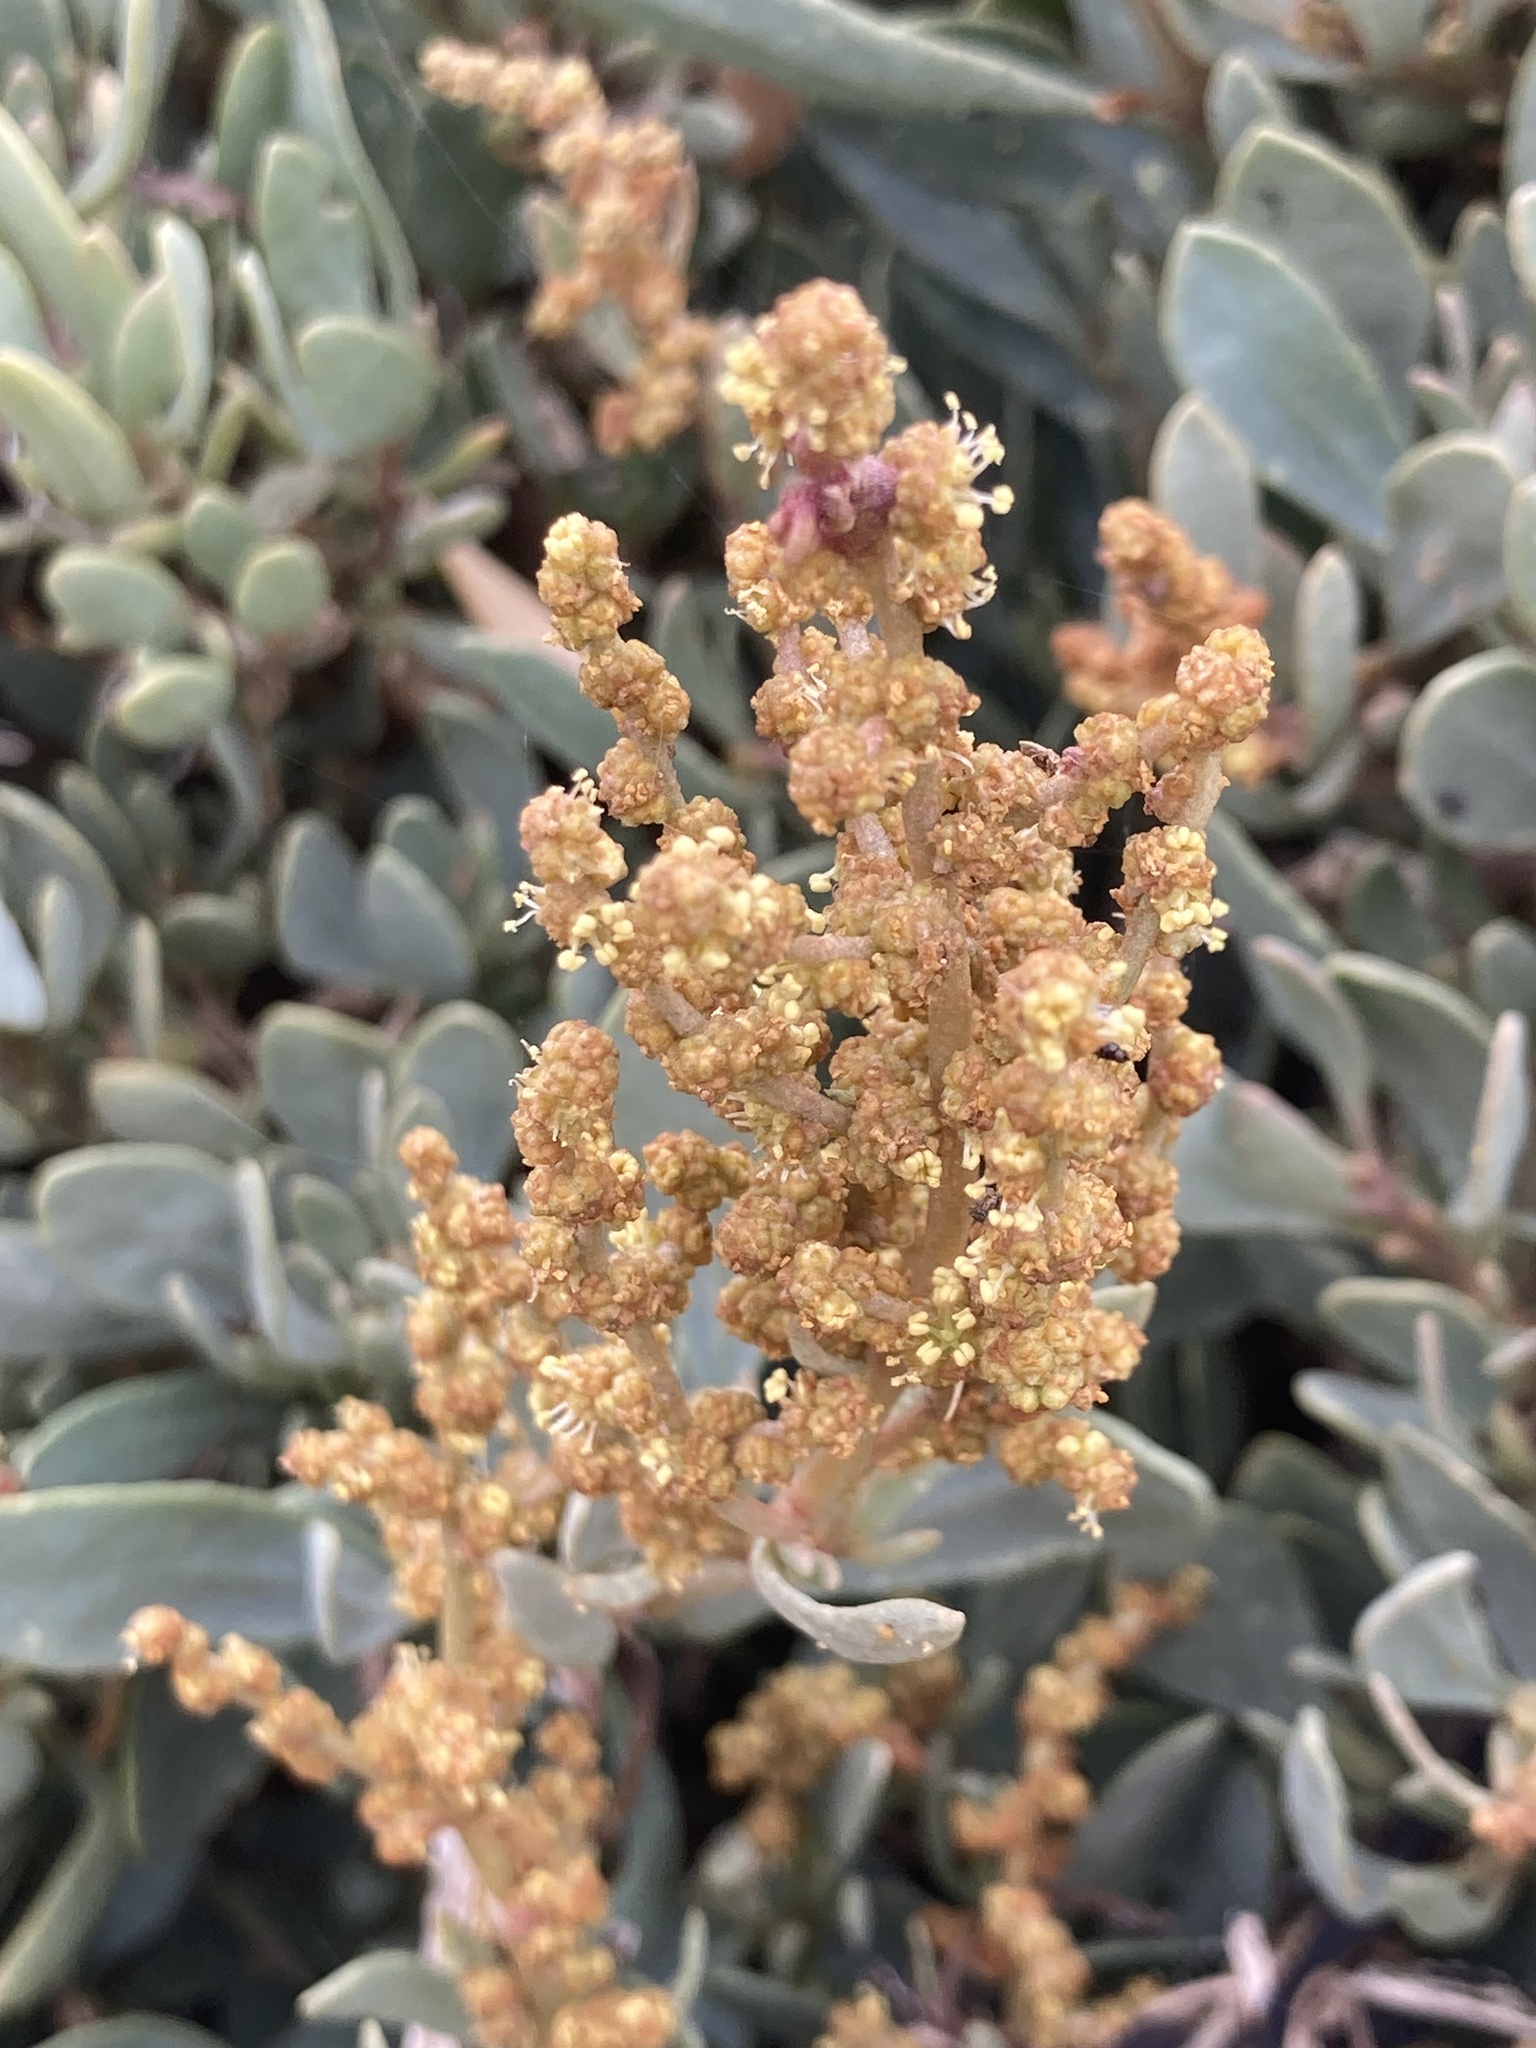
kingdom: Plantae
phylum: Tracheophyta
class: Magnoliopsida
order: Caryophyllales
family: Amaranthaceae
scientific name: Amaranthaceae
